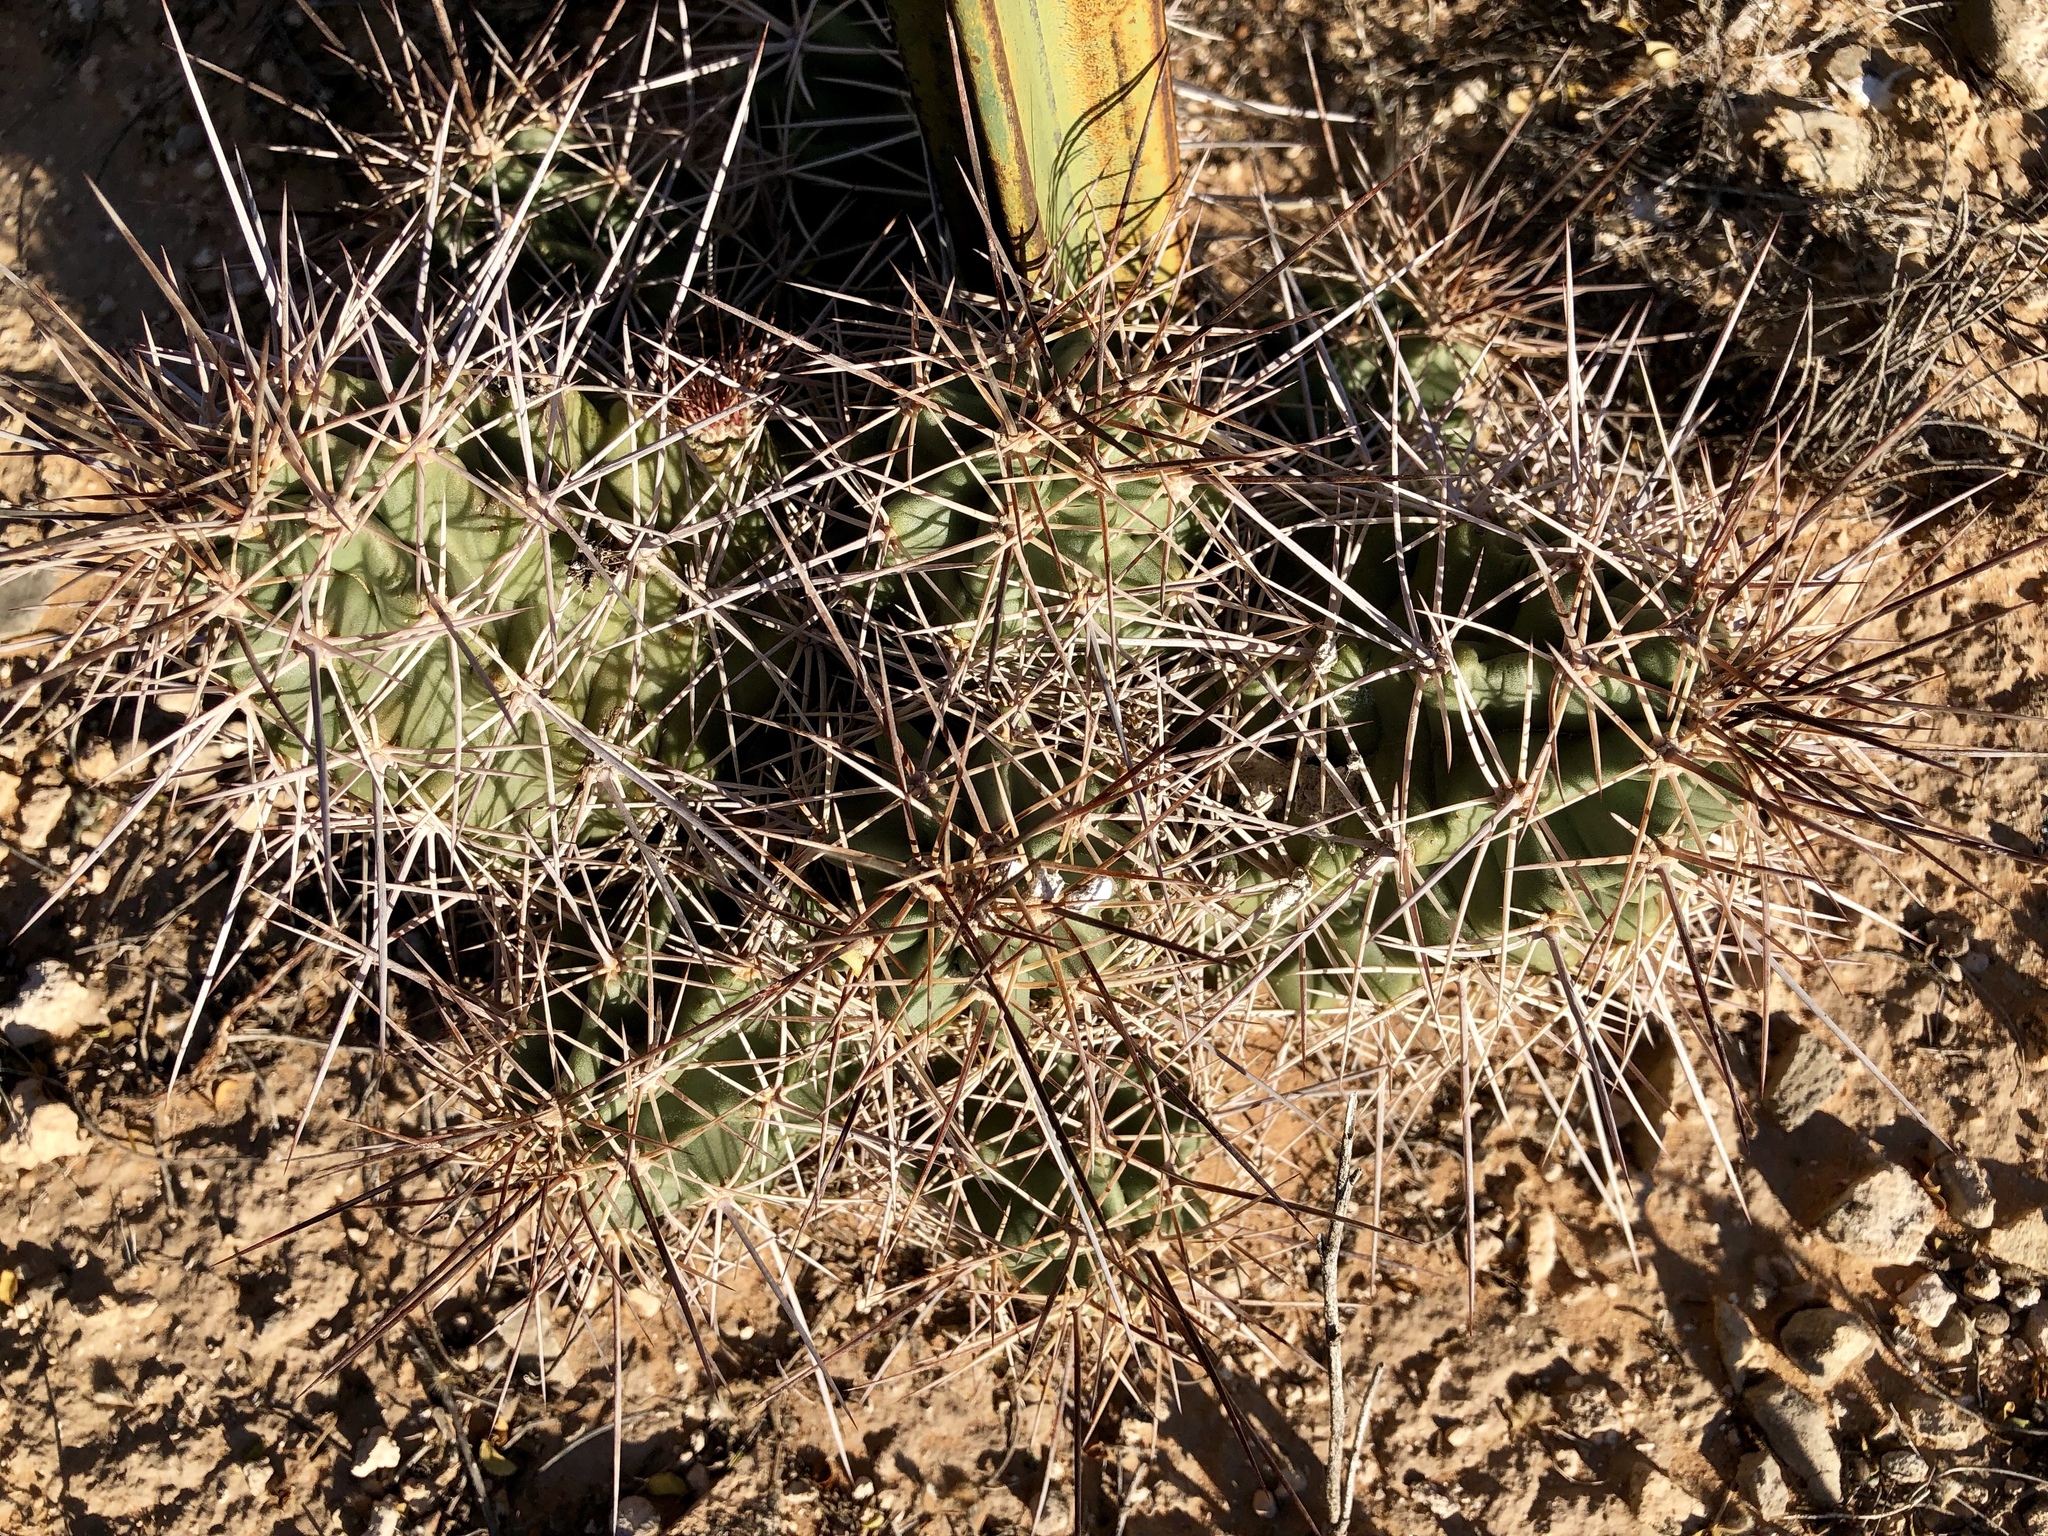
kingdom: Plantae
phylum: Tracheophyta
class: Magnoliopsida
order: Caryophyllales
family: Cactaceae
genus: Echinocereus
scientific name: Echinocereus coccineus
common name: Scarlet hedgehog cactus
